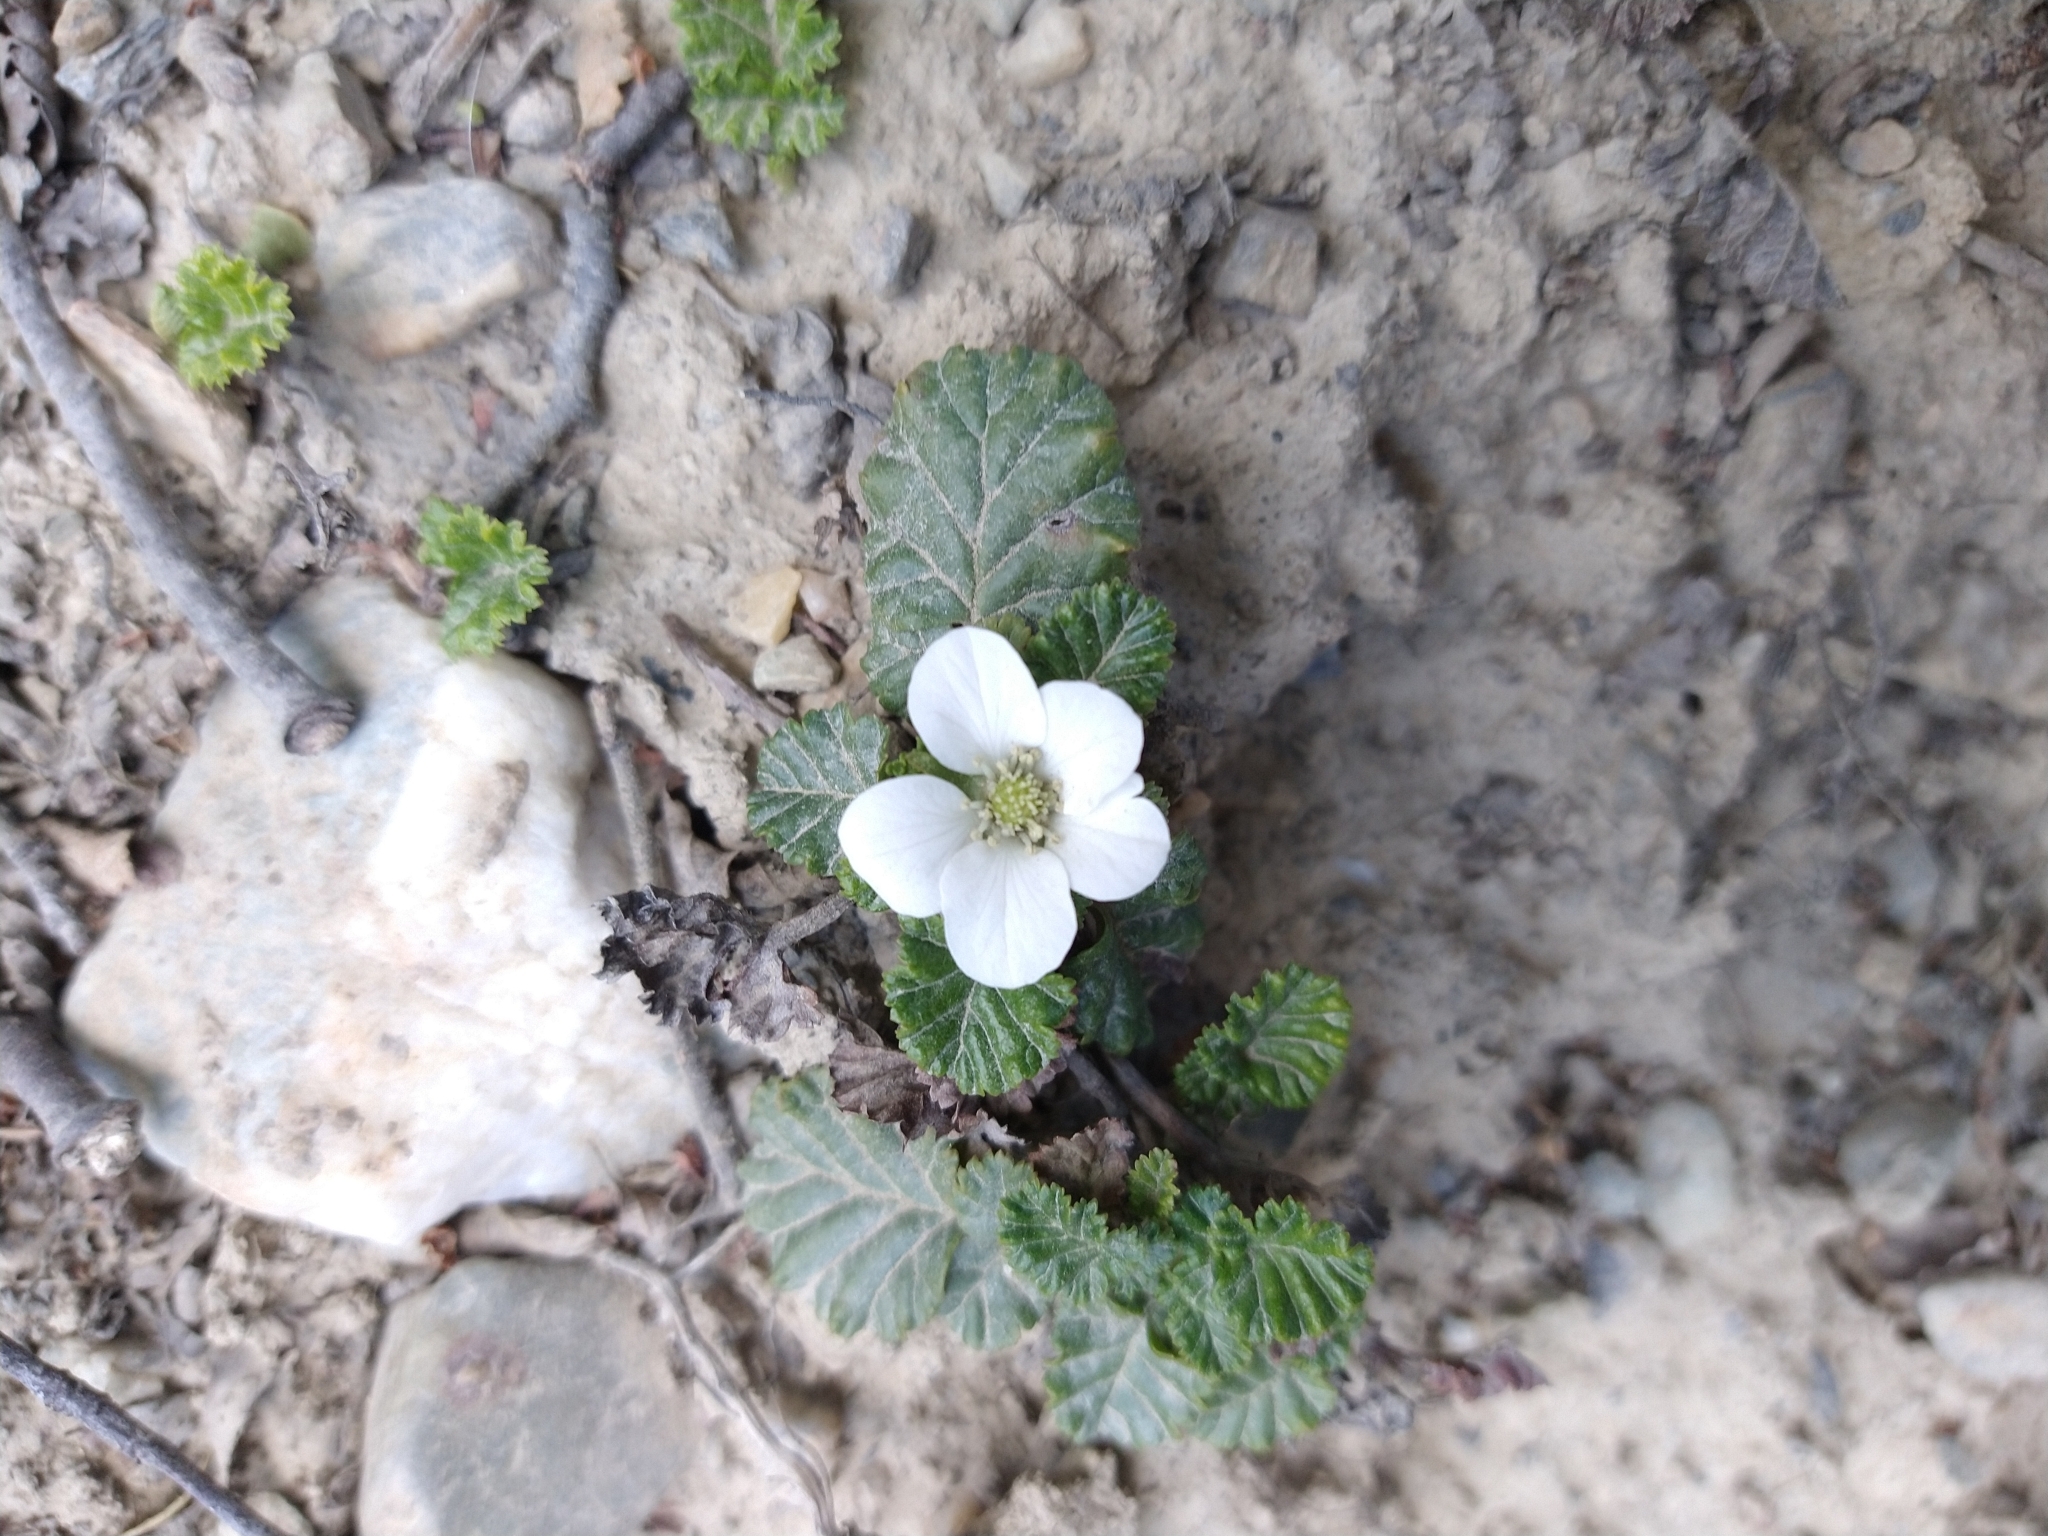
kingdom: Plantae
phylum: Tracheophyta
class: Magnoliopsida
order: Rosales
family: Rosaceae
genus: Rubus
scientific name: Rubus geoides
